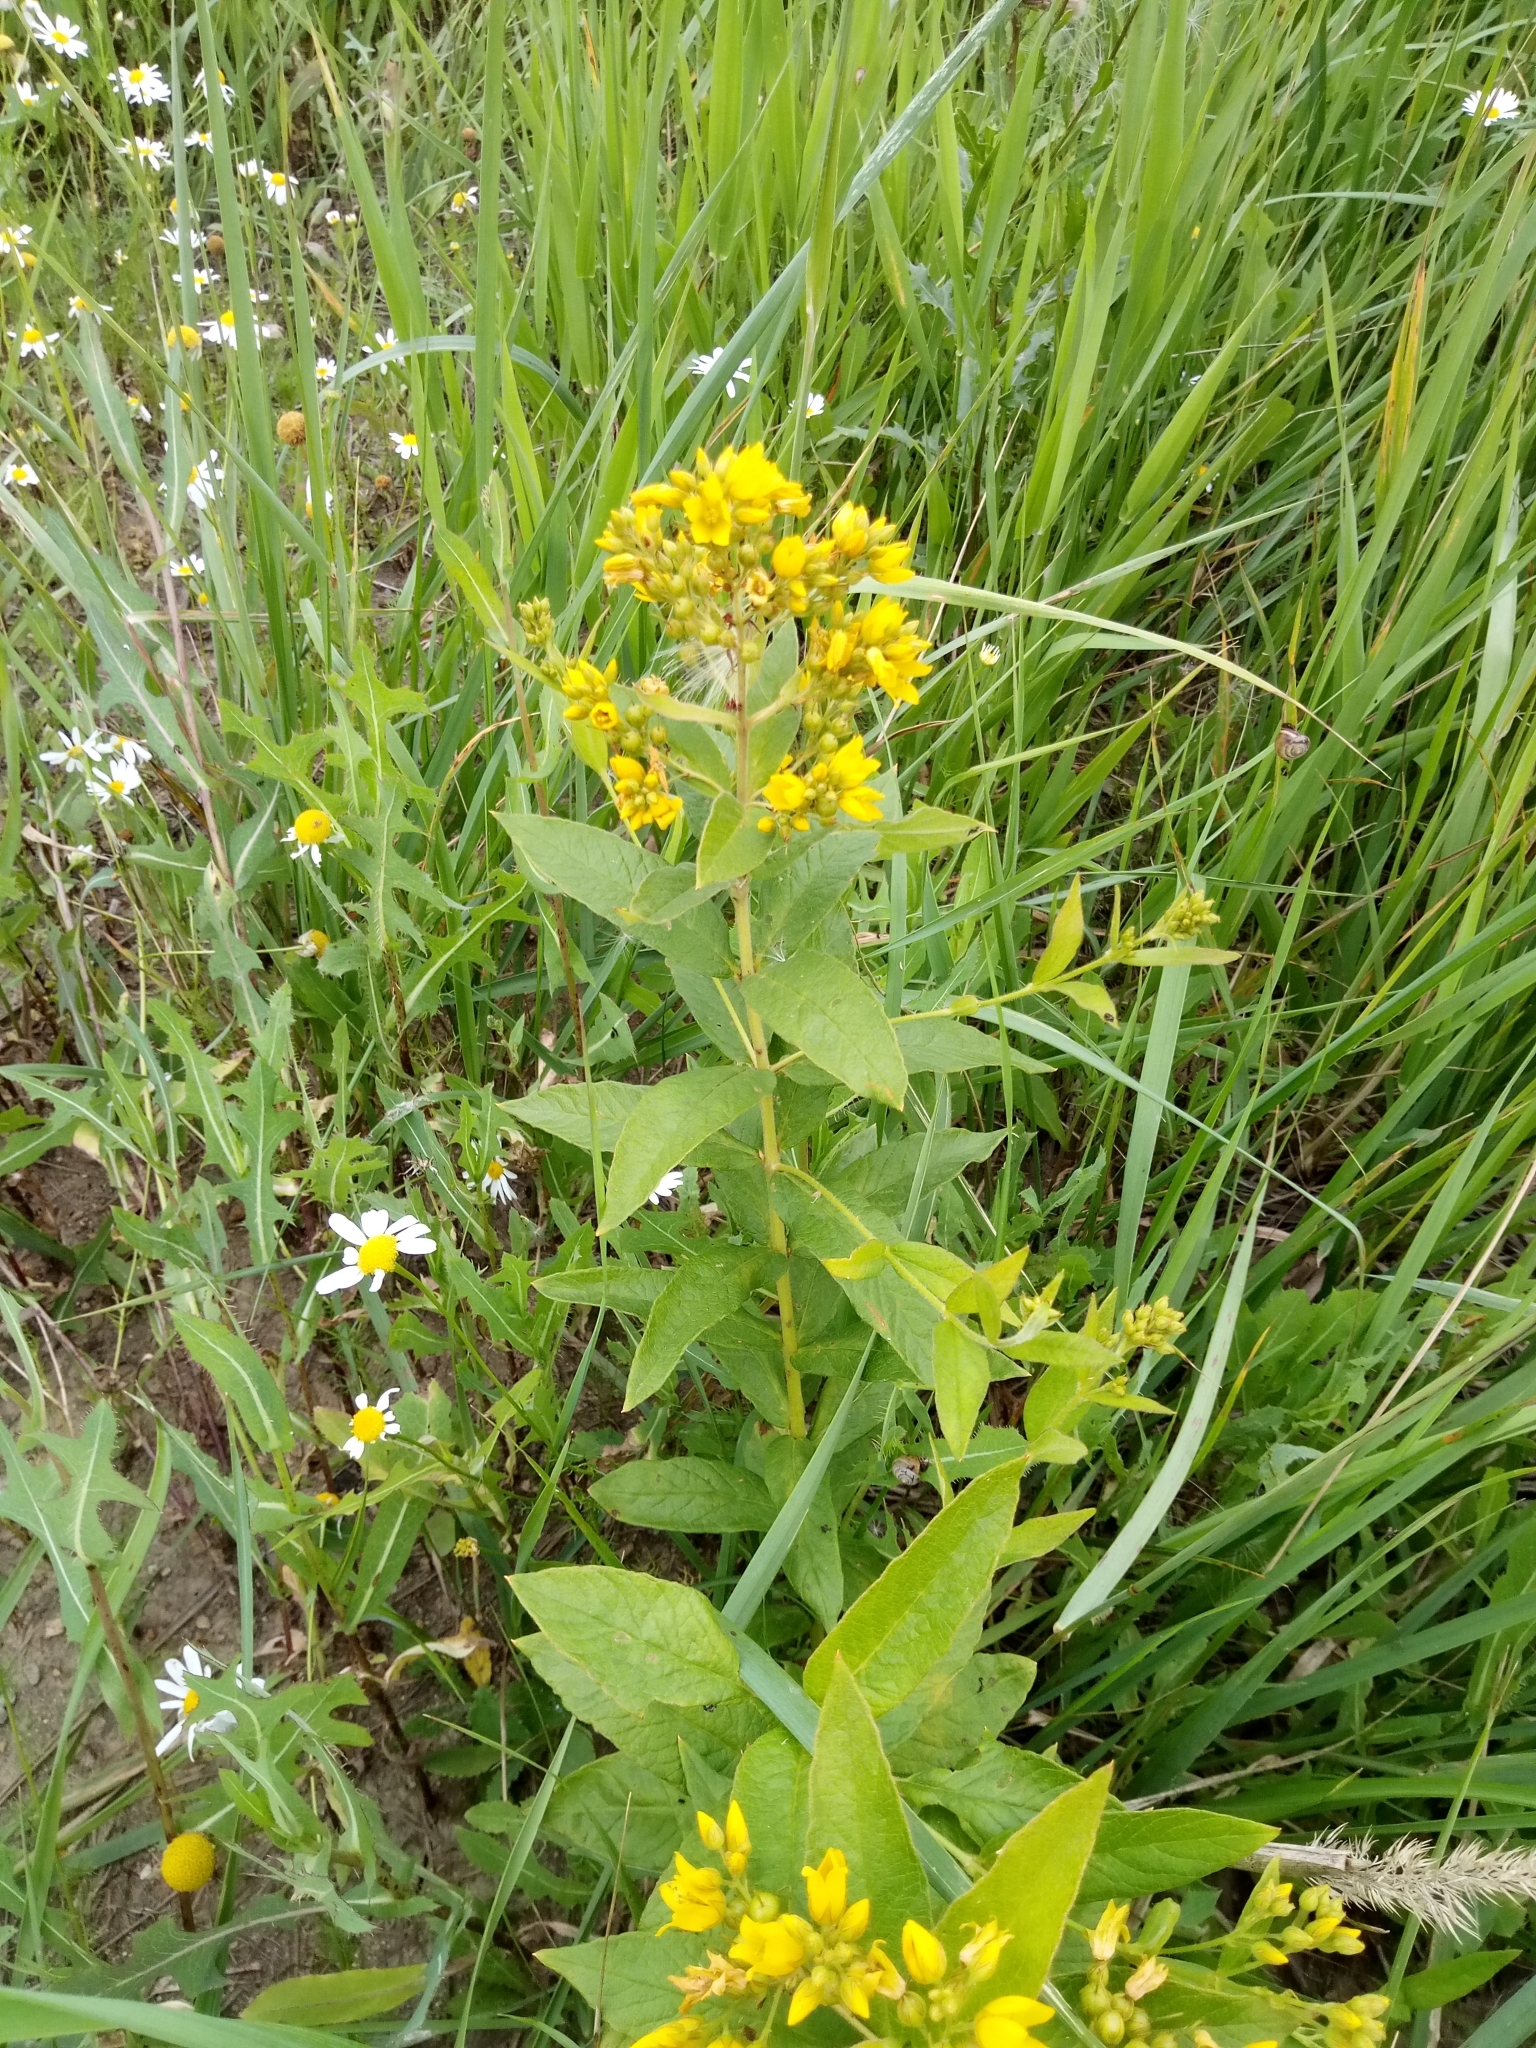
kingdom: Plantae
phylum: Tracheophyta
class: Magnoliopsida
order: Ericales
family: Primulaceae
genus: Lysimachia
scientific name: Lysimachia vulgaris
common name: Yellow loosestrife
